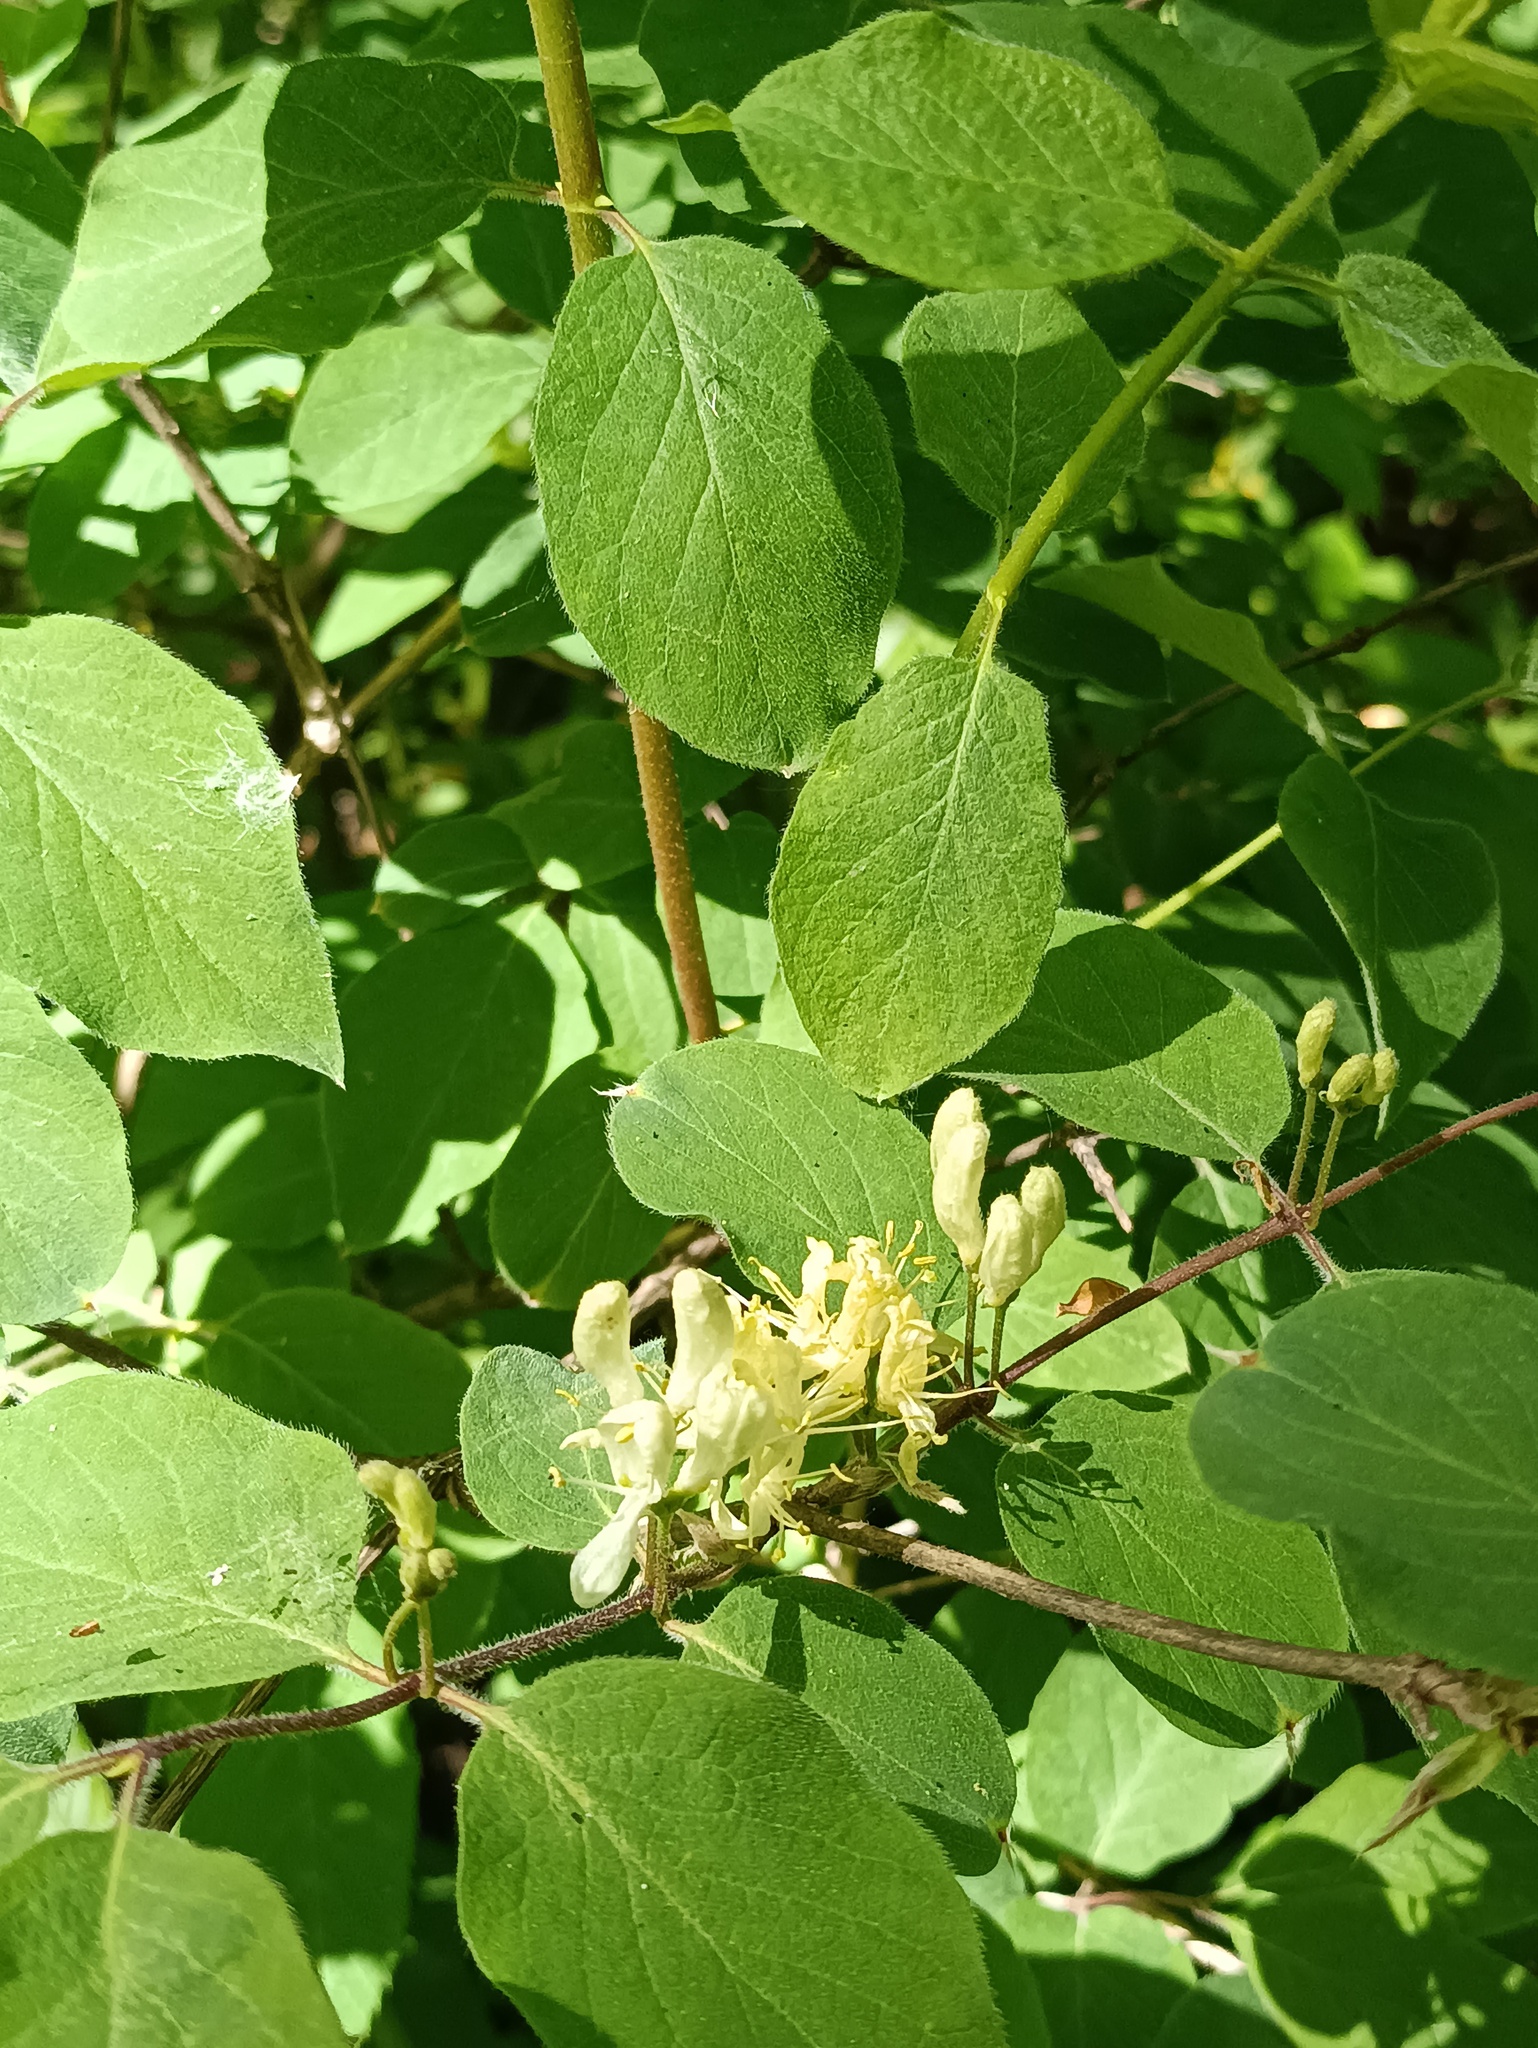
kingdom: Plantae
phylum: Tracheophyta
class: Magnoliopsida
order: Dipsacales
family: Caprifoliaceae
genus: Lonicera
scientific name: Lonicera xylosteum
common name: Fly honeysuckle
